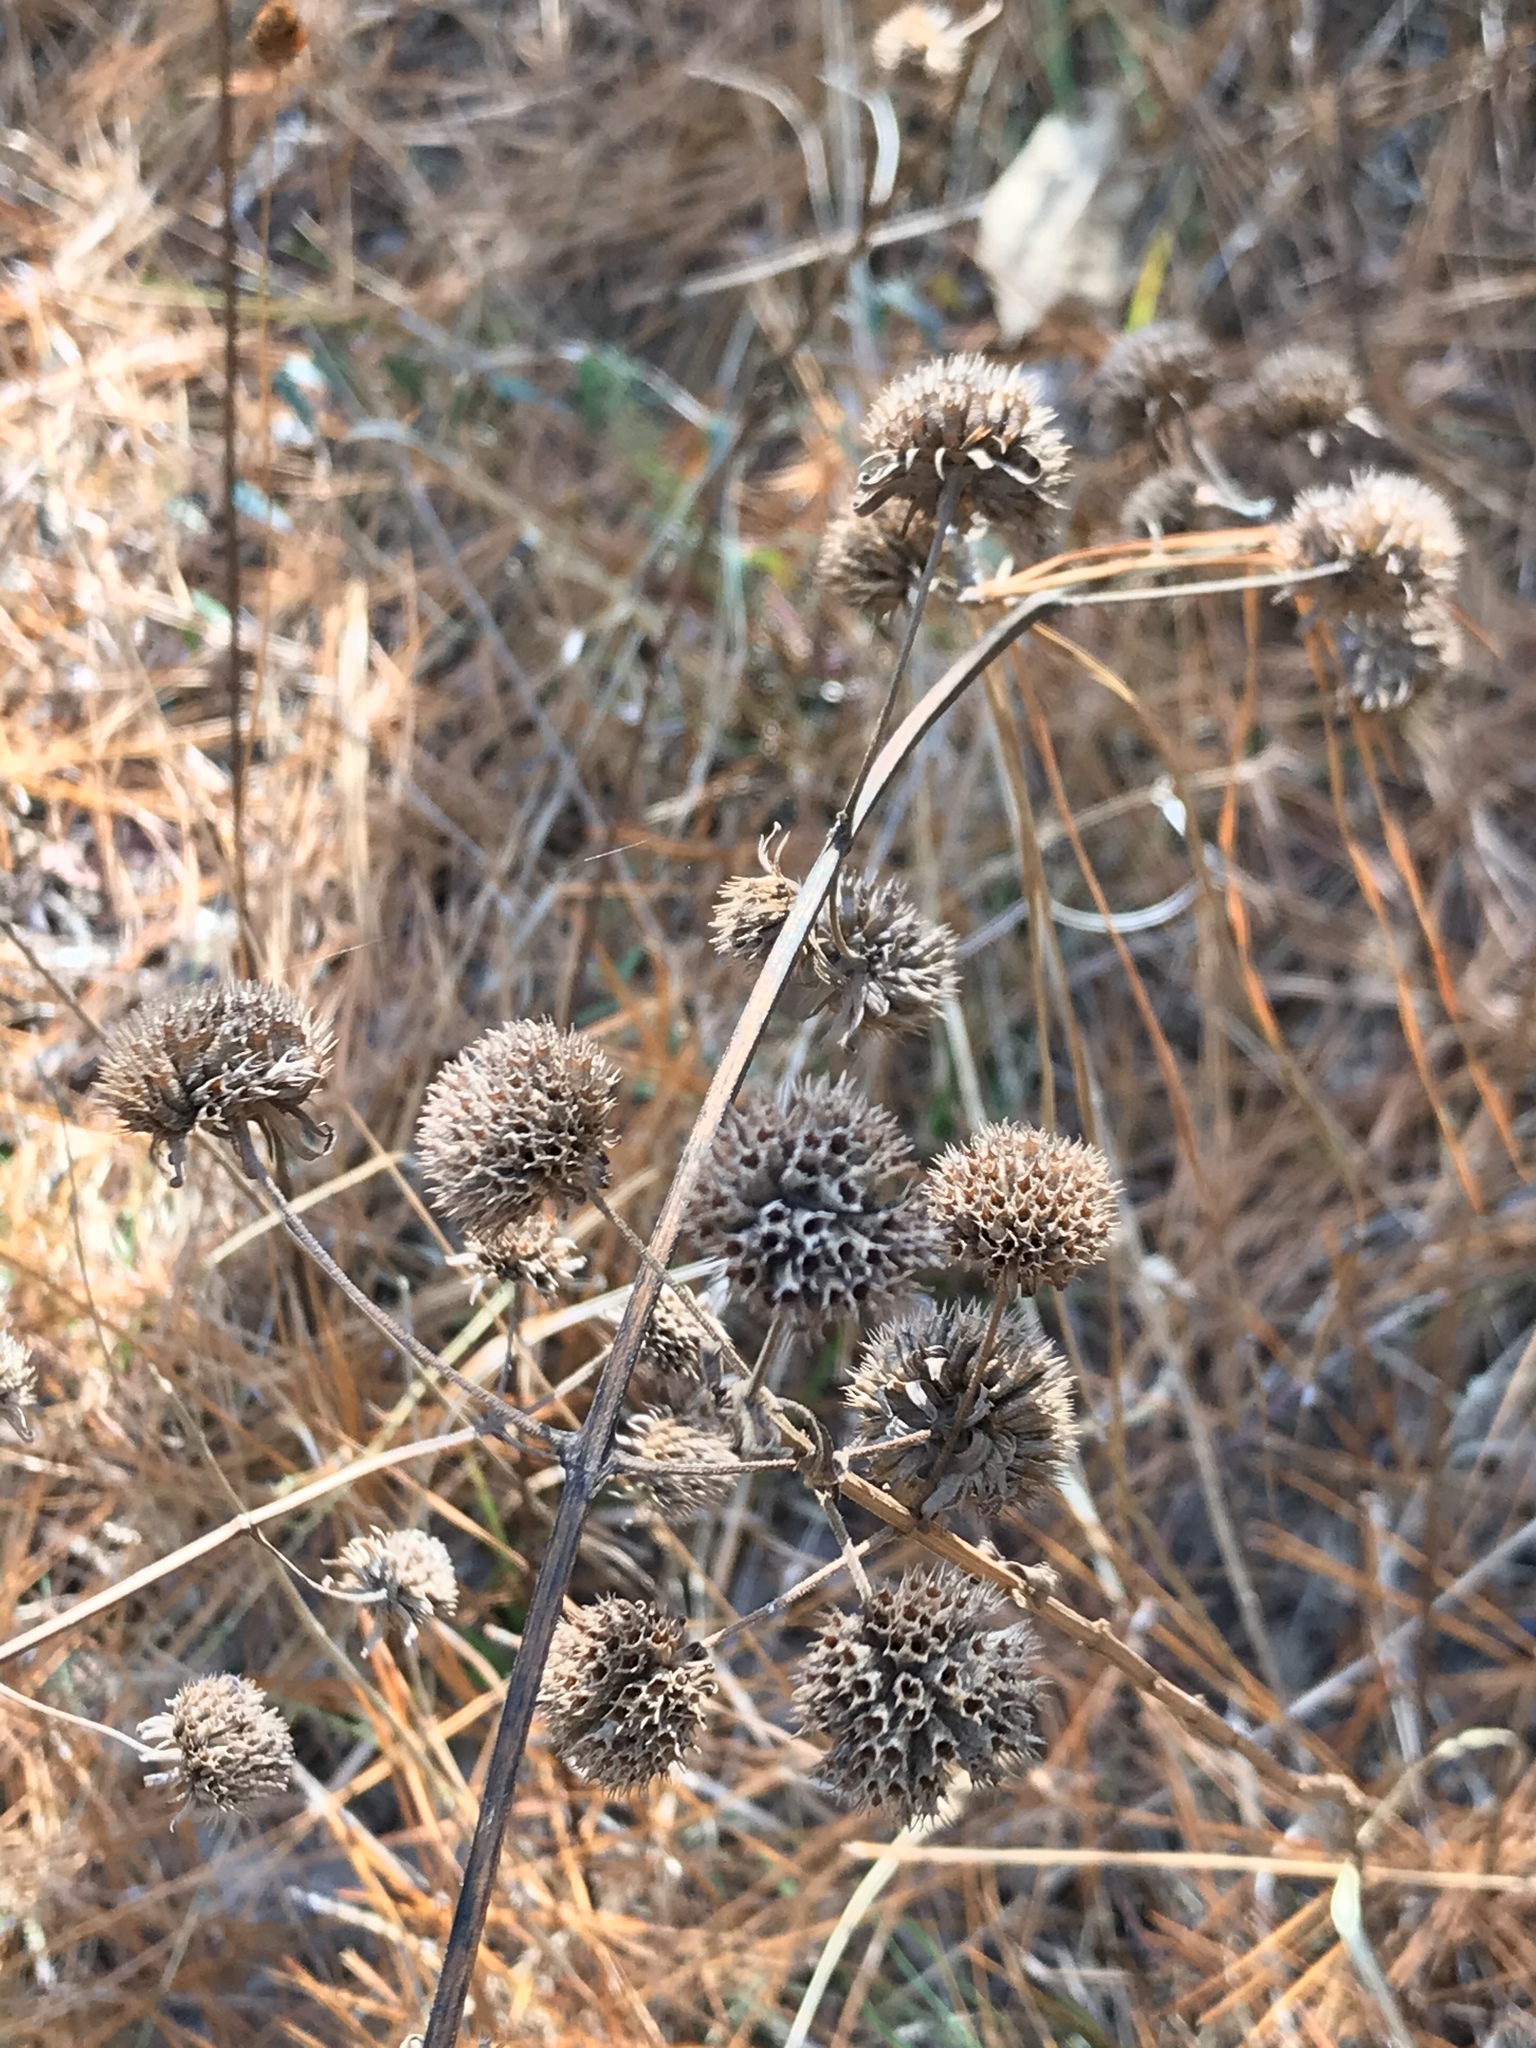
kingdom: Plantae
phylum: Tracheophyta
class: Magnoliopsida
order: Lamiales
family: Lamiaceae
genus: Hyptis
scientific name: Hyptis alata
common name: Cluster bush-mint
